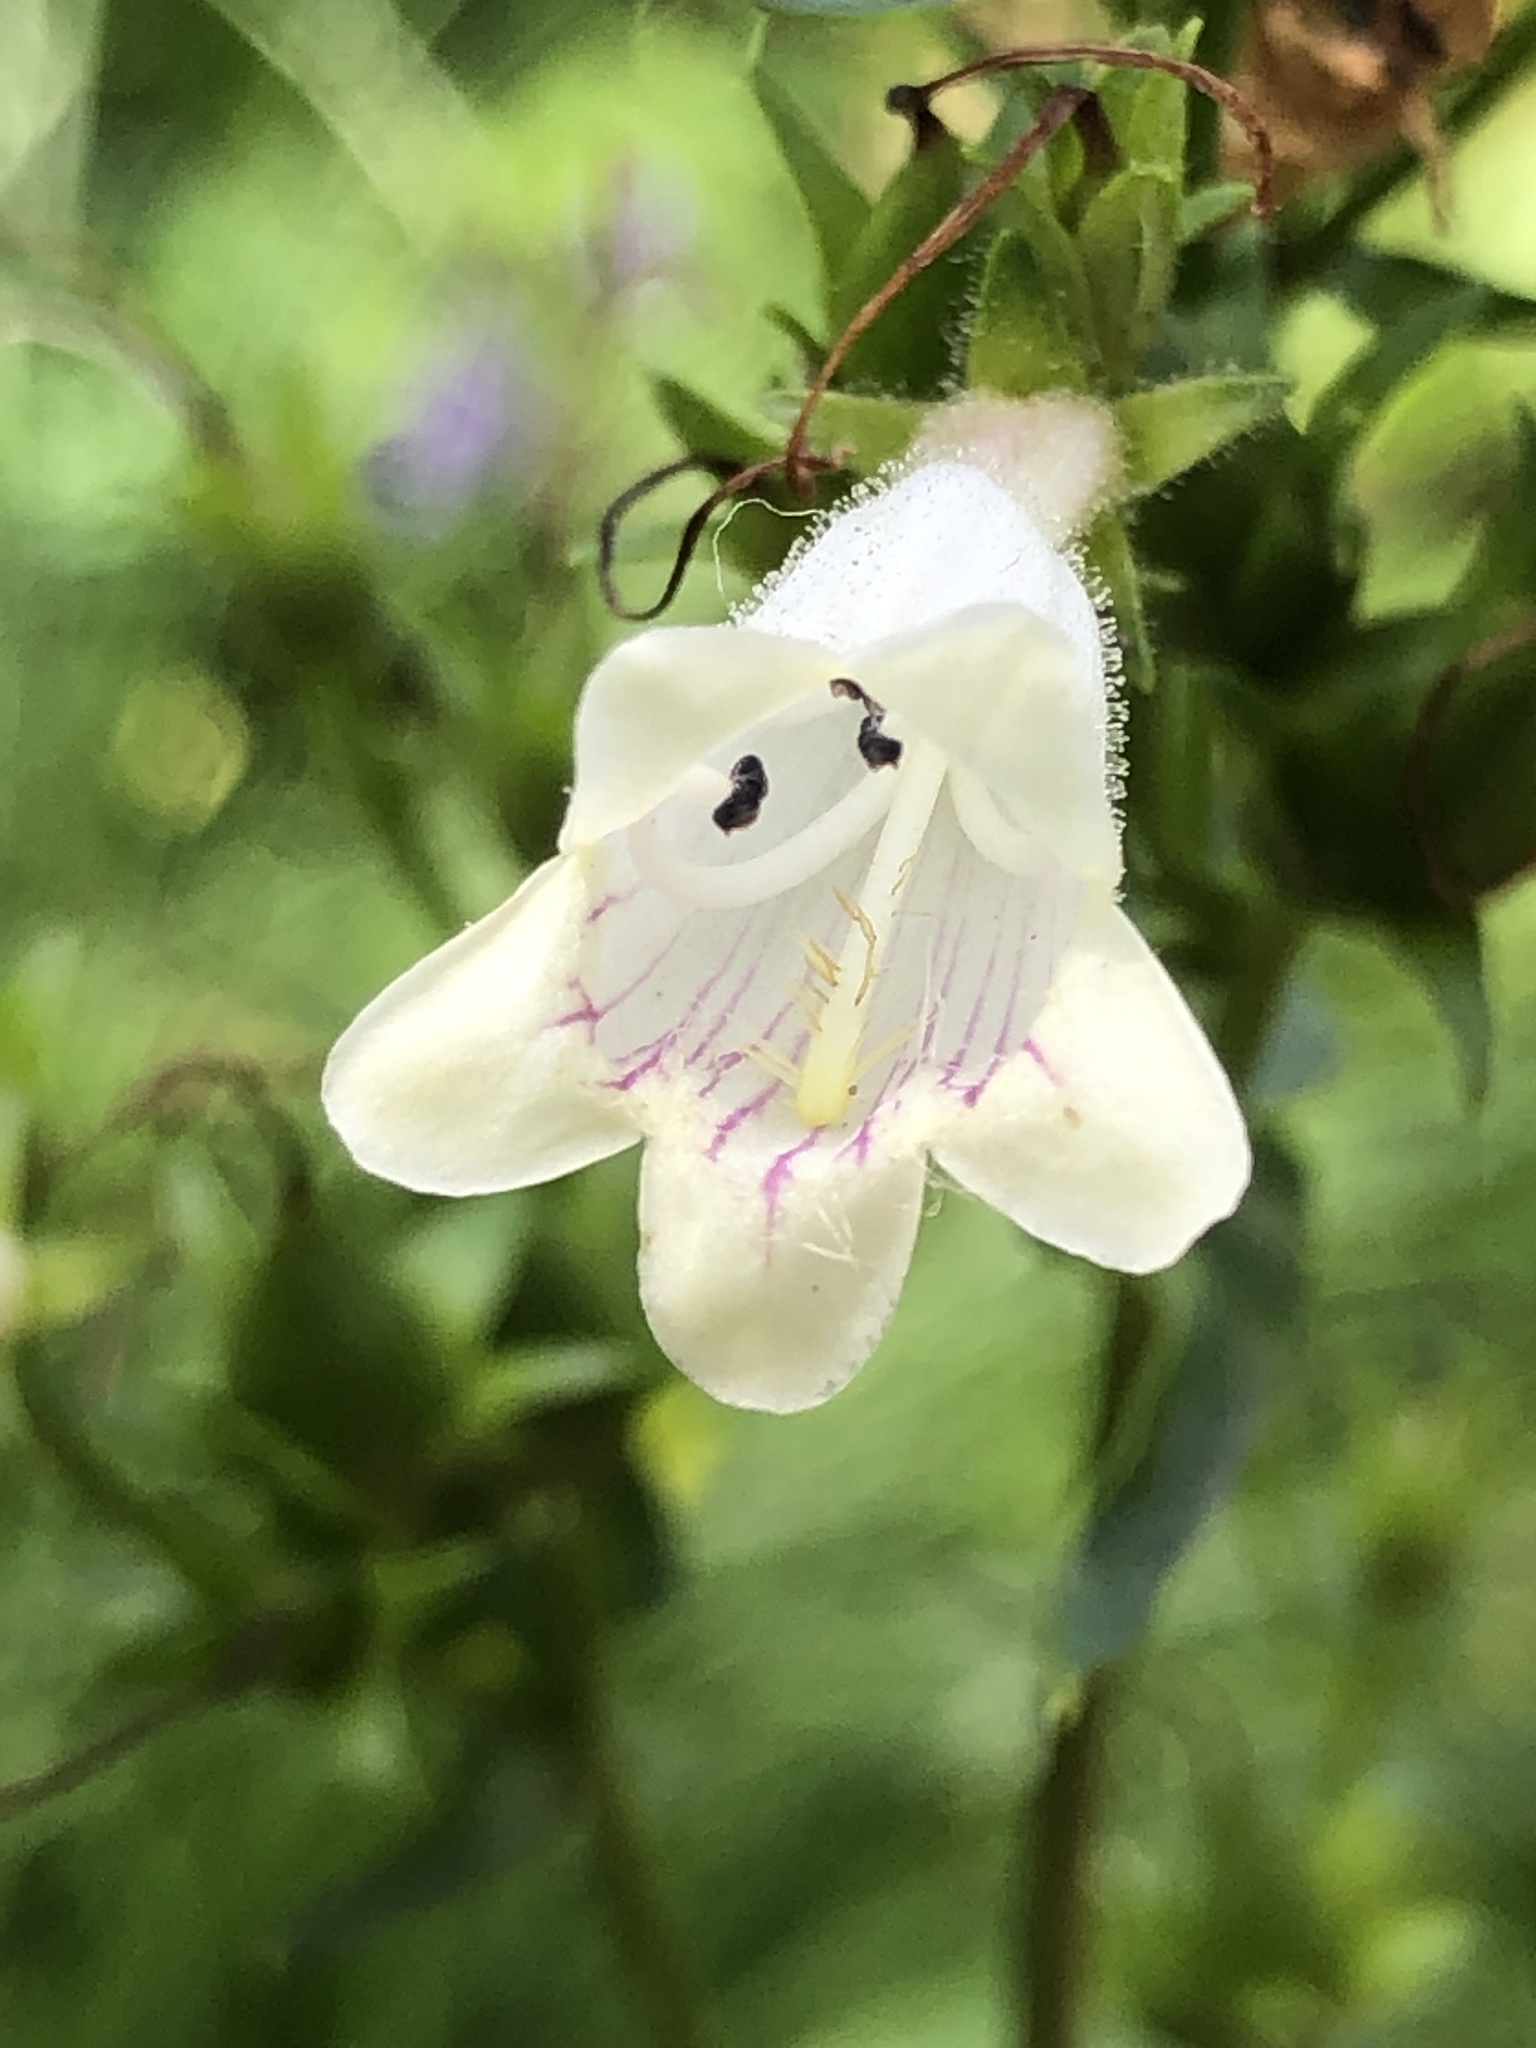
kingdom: Plantae
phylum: Tracheophyta
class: Magnoliopsida
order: Lamiales
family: Plantaginaceae
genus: Penstemon
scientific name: Penstemon digitalis
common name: Foxglove beardtongue
